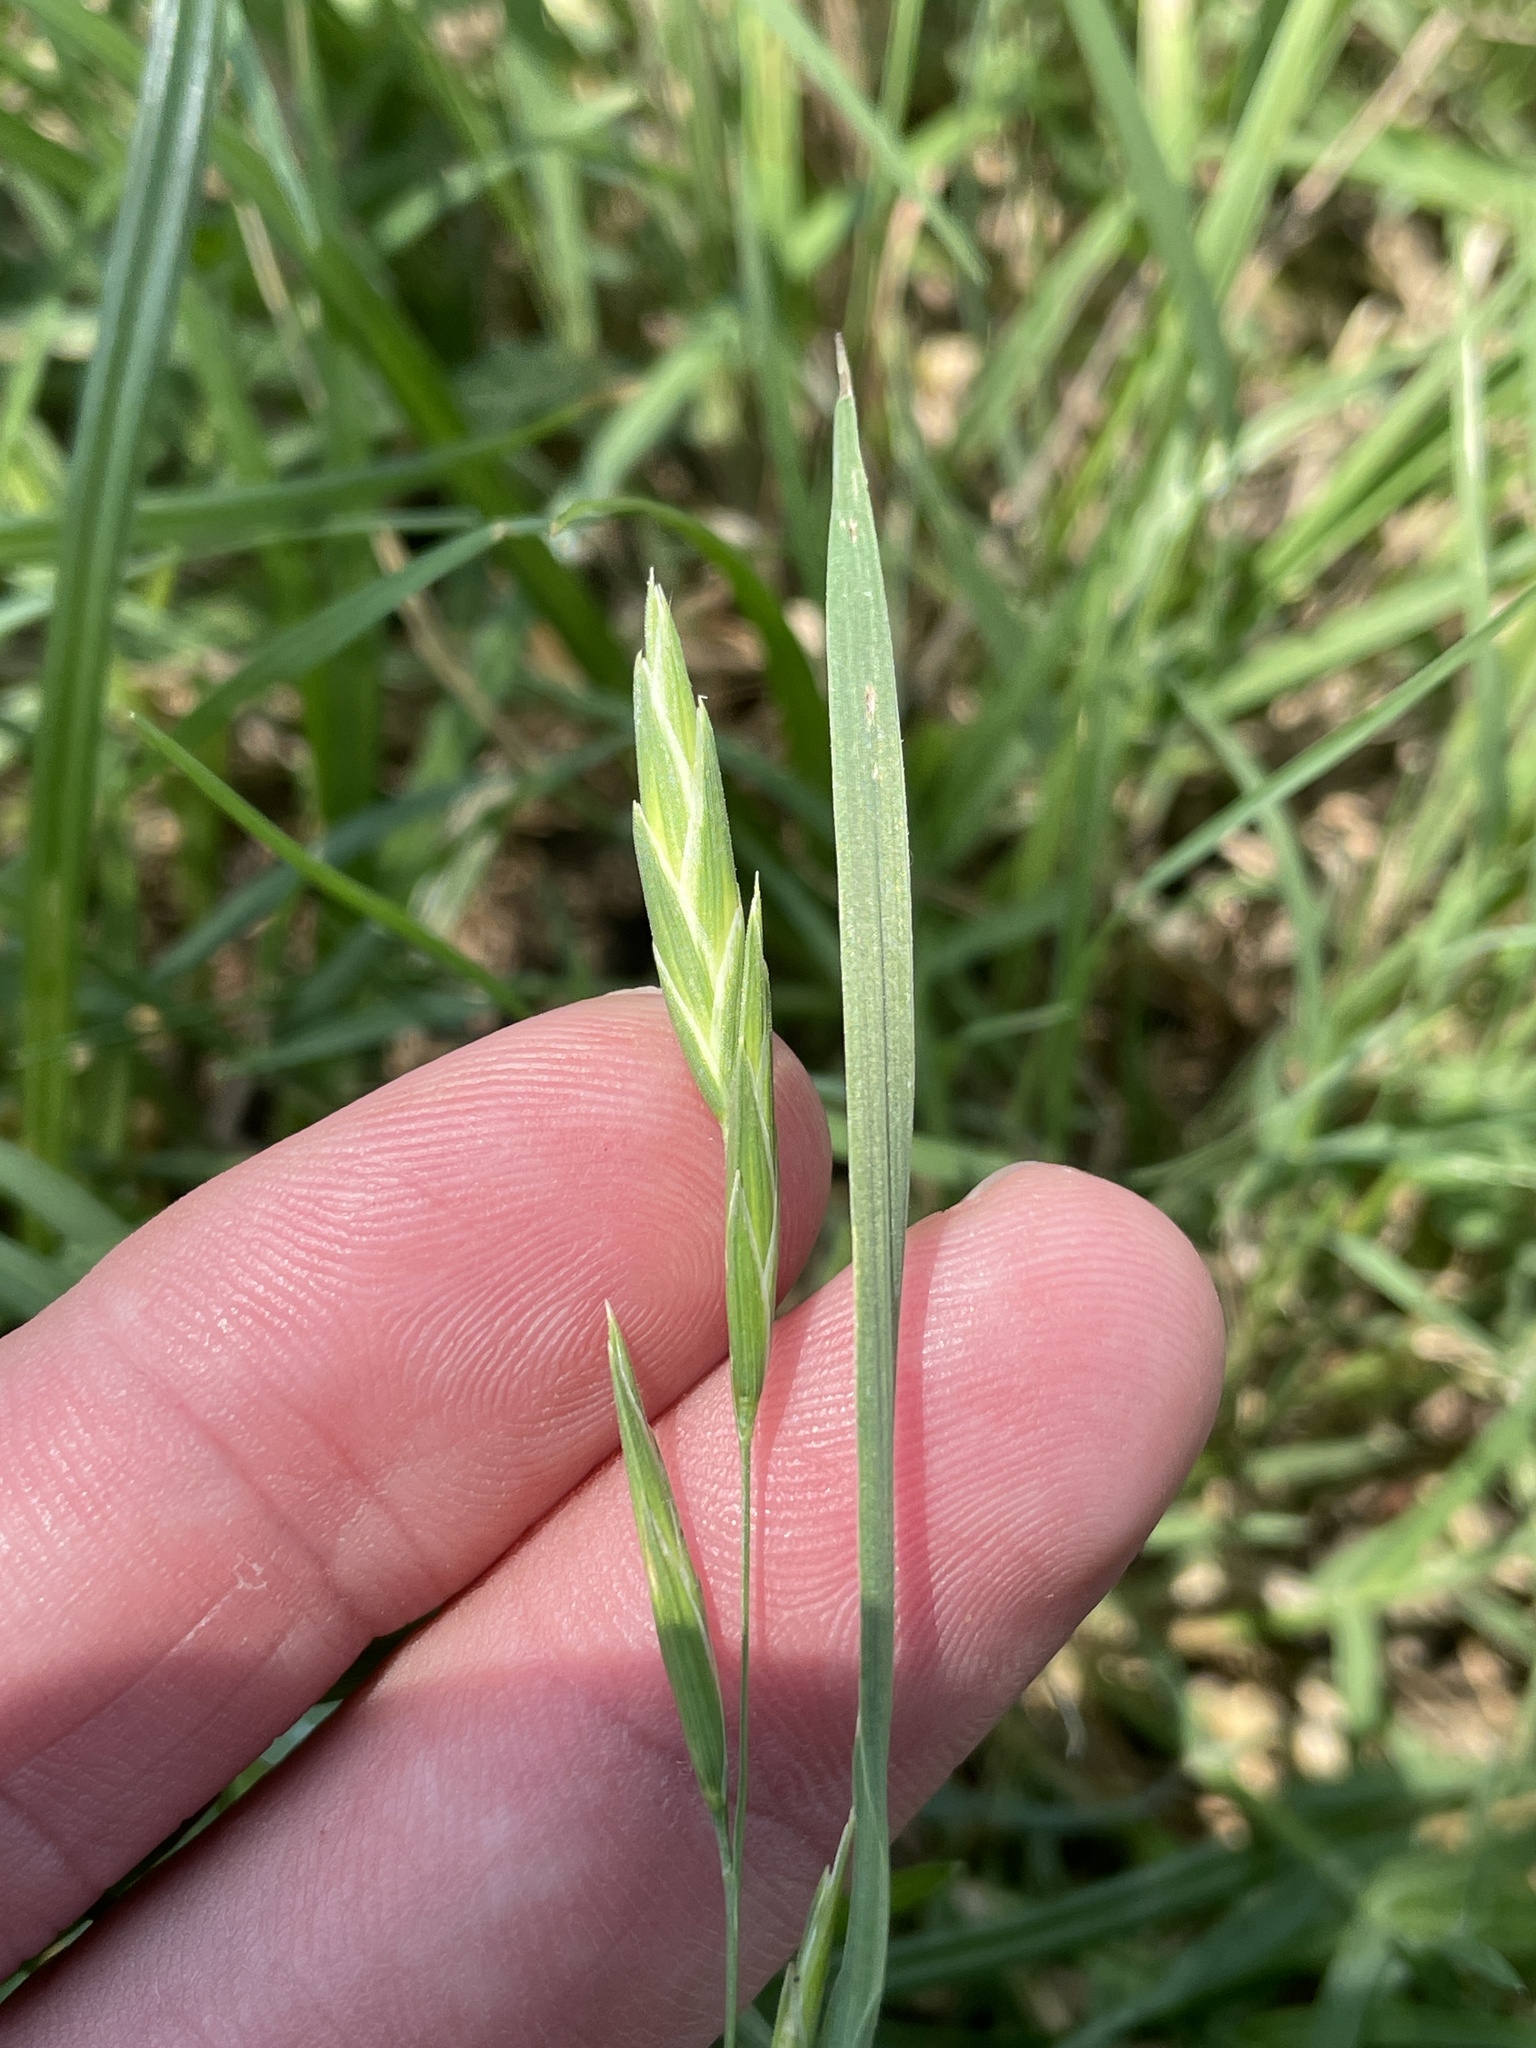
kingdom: Plantae
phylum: Tracheophyta
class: Liliopsida
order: Poales
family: Poaceae
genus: Bromus
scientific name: Bromus catharticus
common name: Rescuegrass
